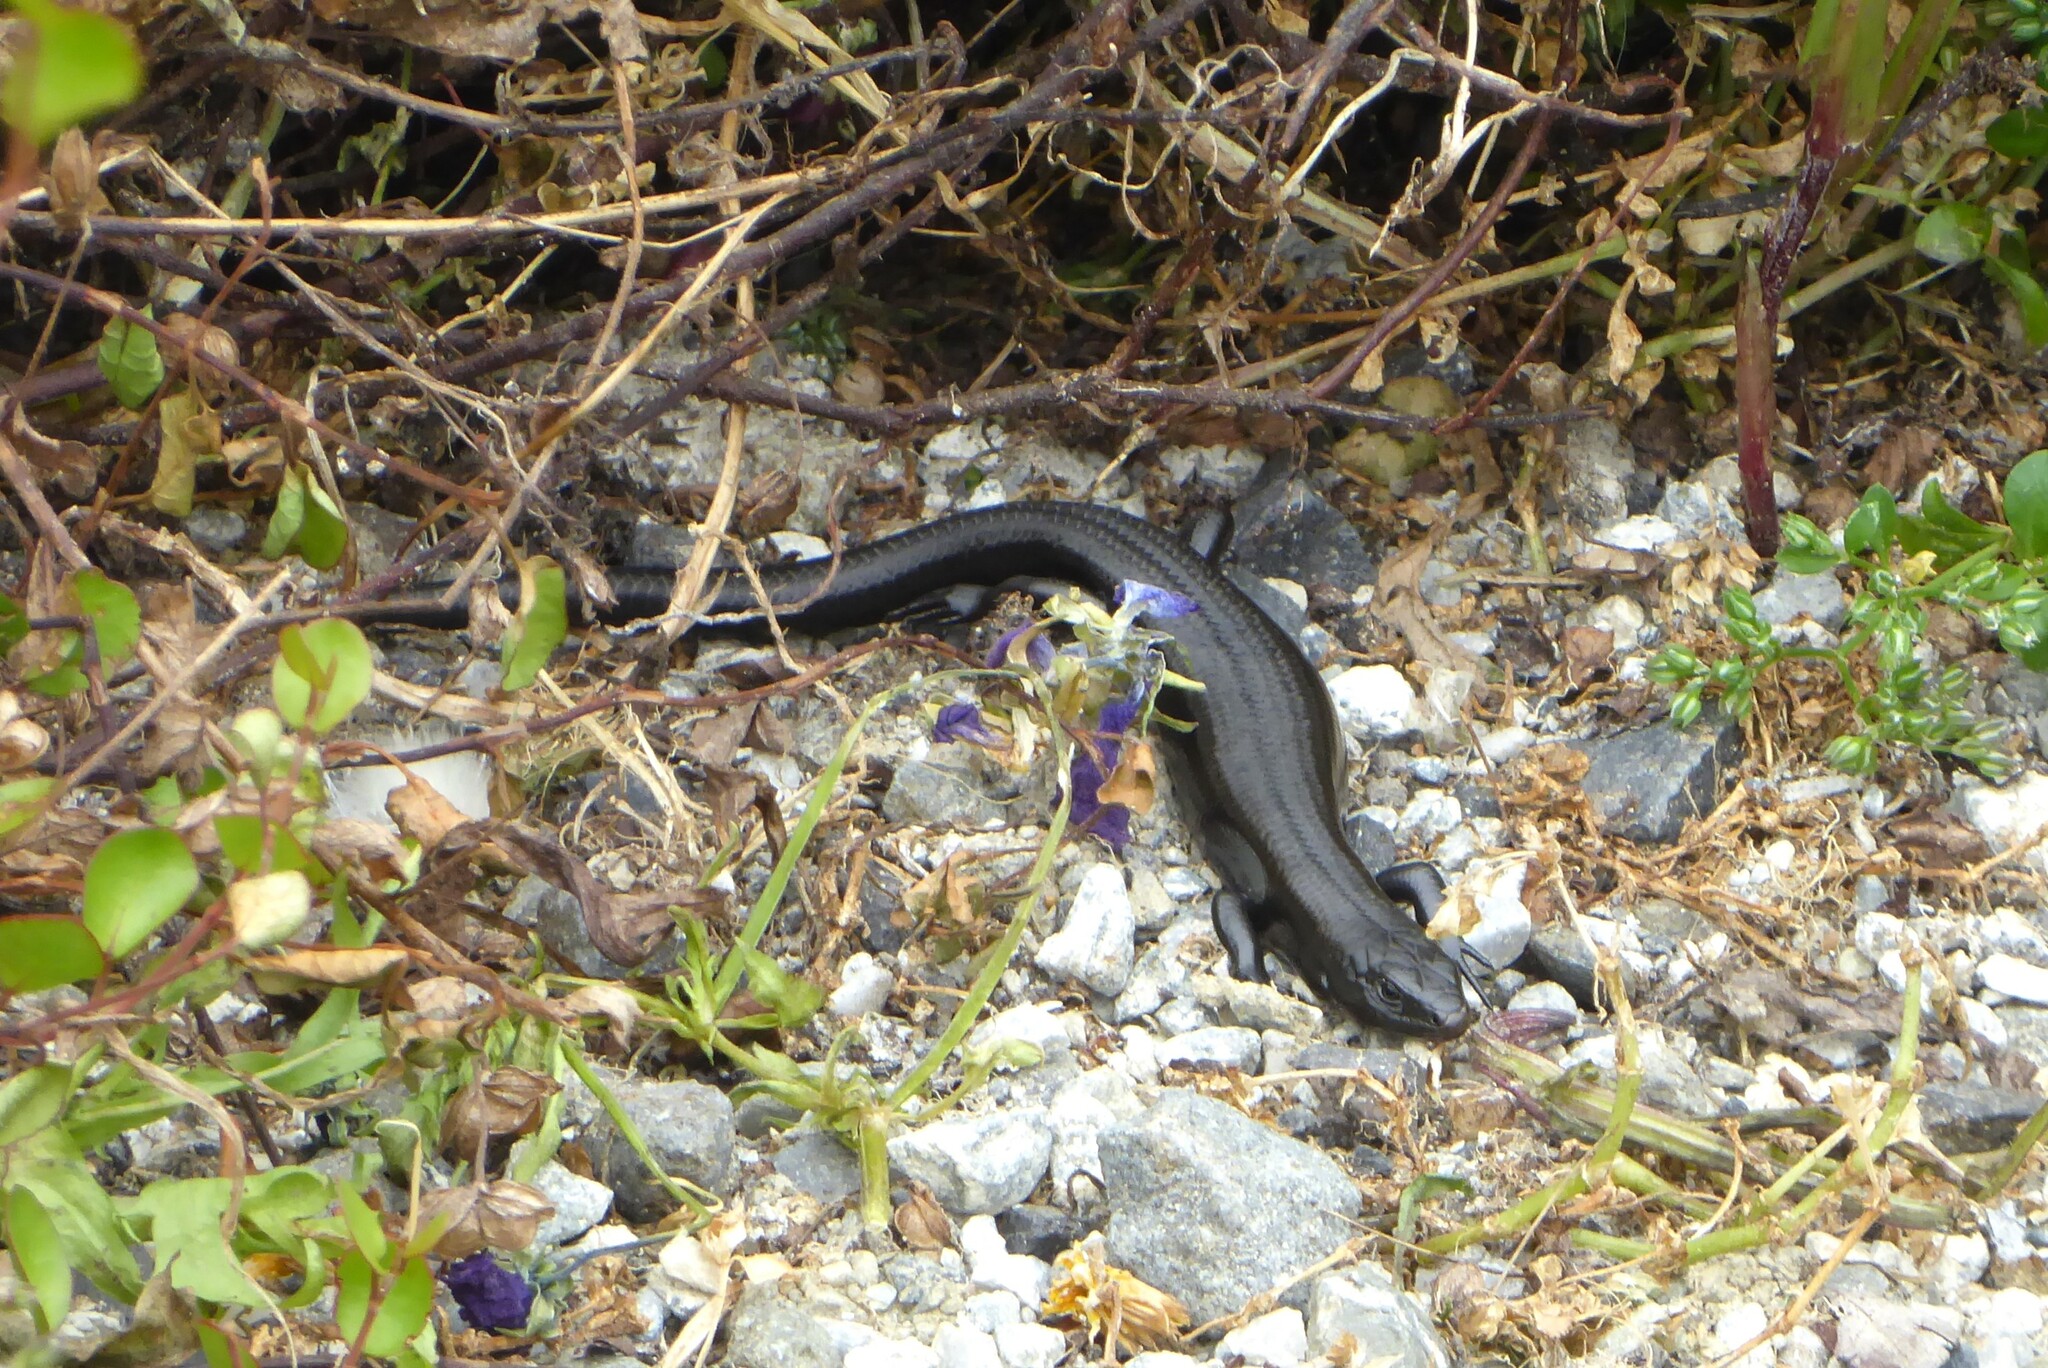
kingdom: Animalia
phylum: Chordata
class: Squamata
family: Scincidae
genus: Oligosoma
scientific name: Oligosoma polychroma
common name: Common new zealand skink
